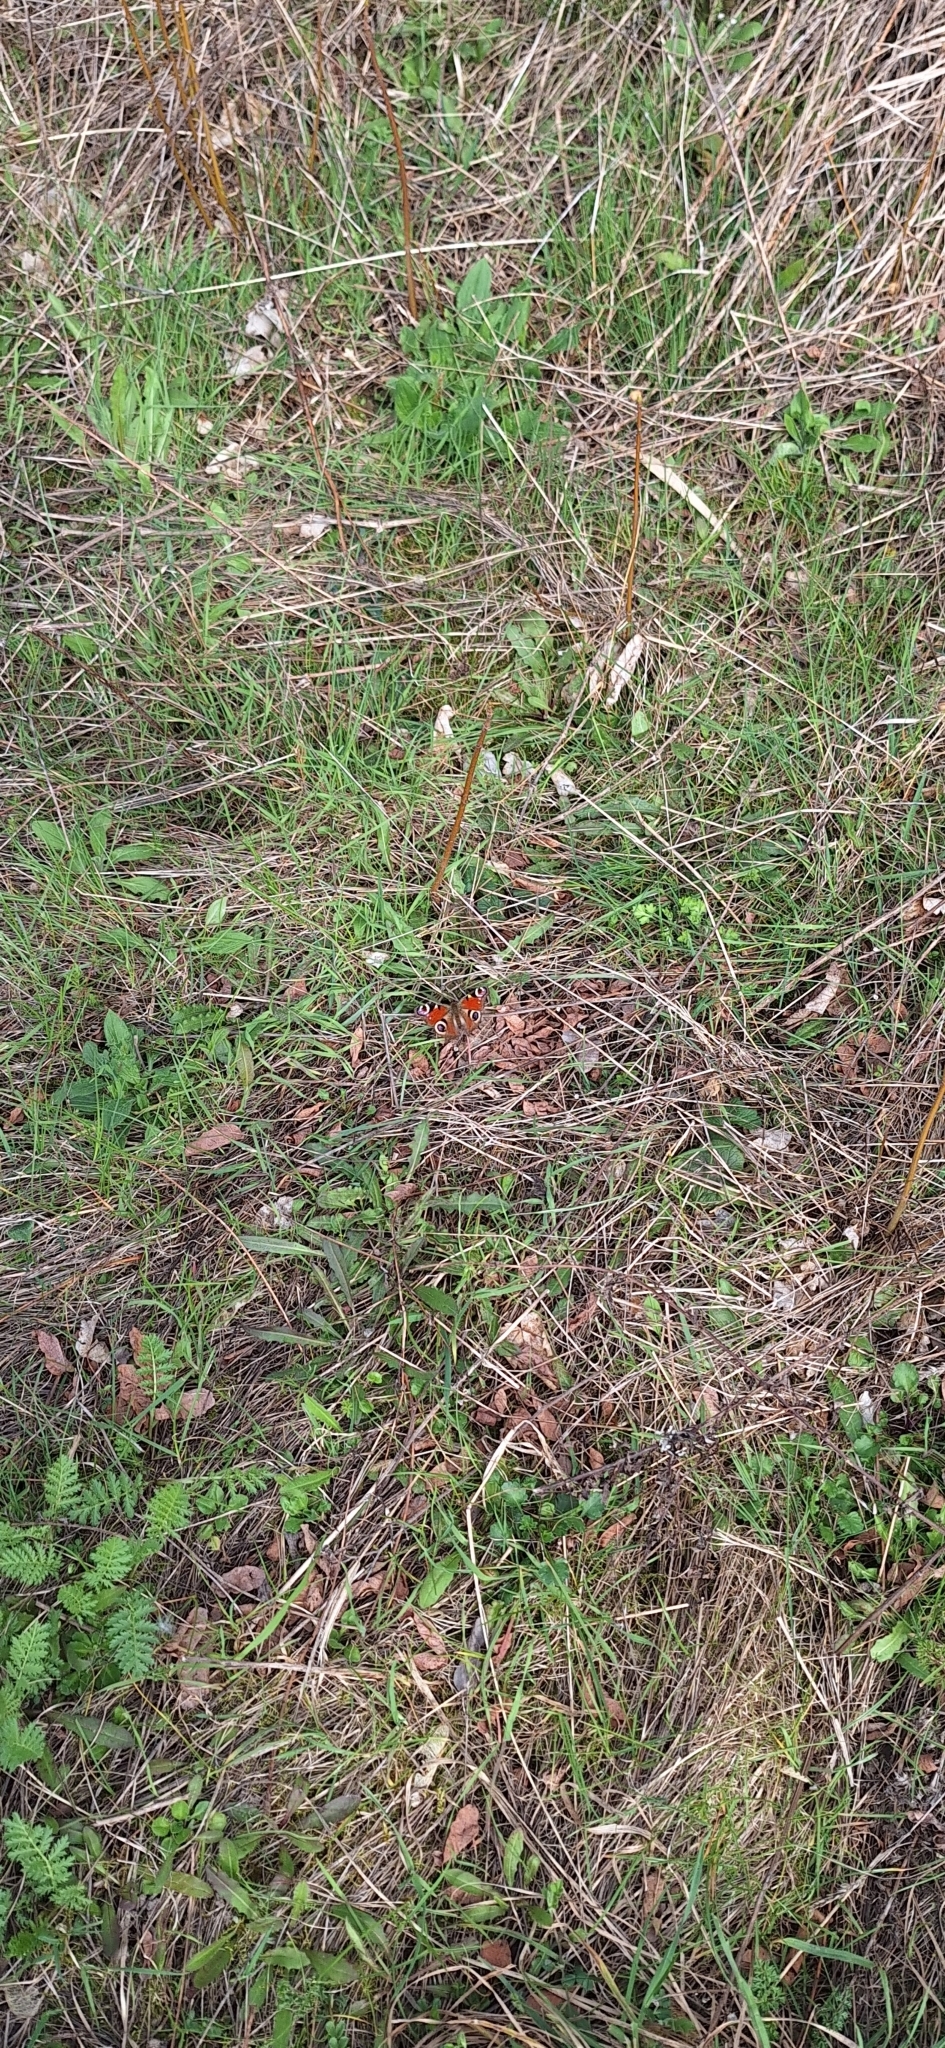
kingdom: Animalia
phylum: Arthropoda
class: Insecta
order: Lepidoptera
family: Nymphalidae
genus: Aglais
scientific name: Aglais io
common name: Peacock
